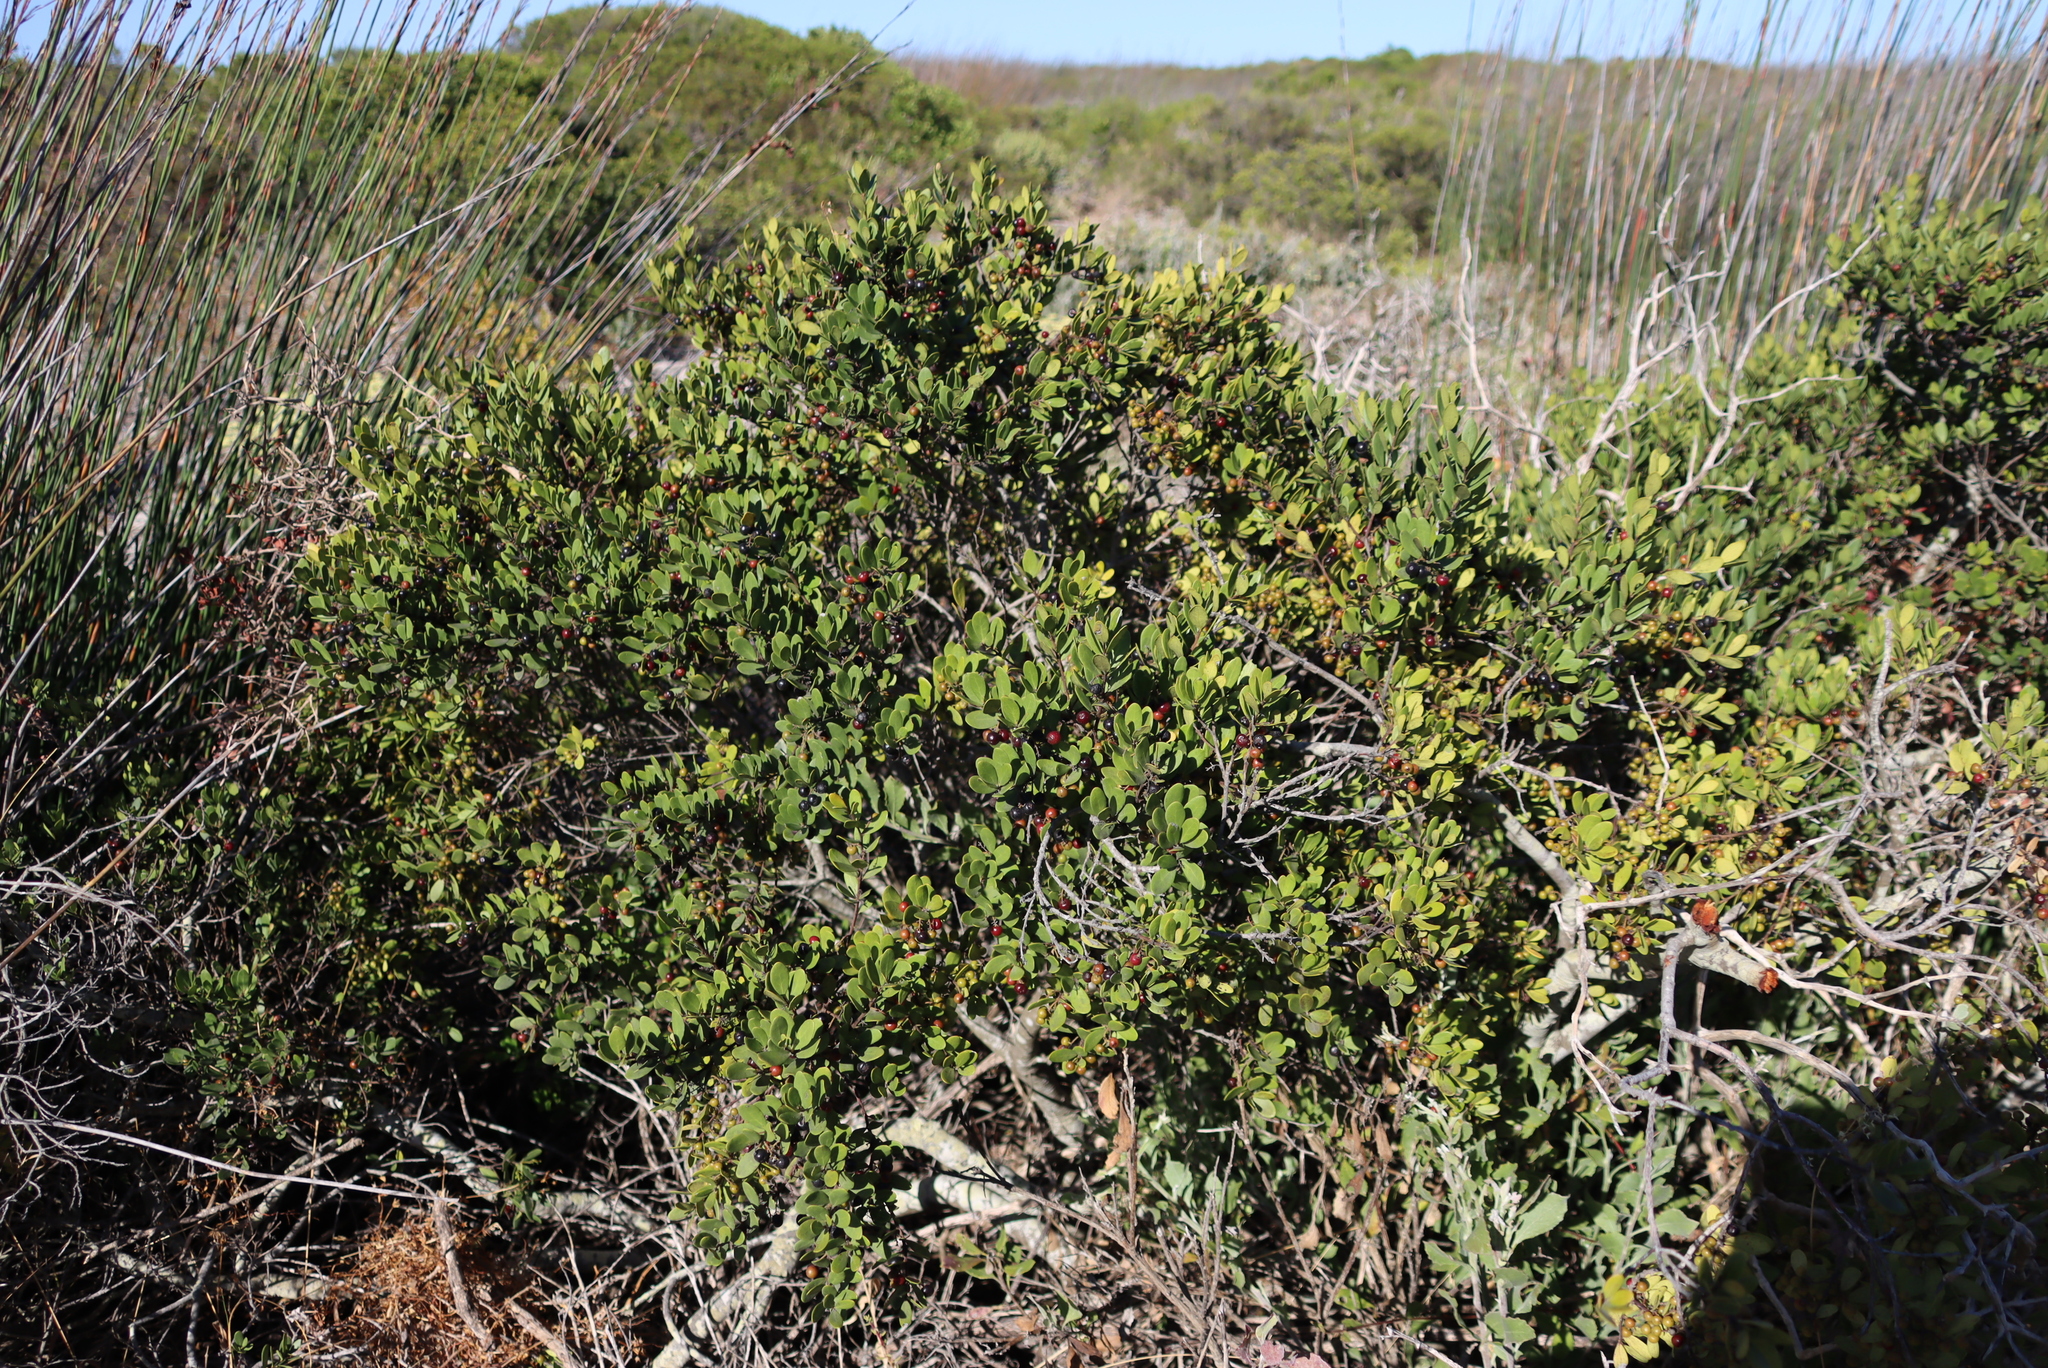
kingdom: Plantae
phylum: Tracheophyta
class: Magnoliopsida
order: Santalales
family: Santalaceae
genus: Osyris
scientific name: Osyris compressa
